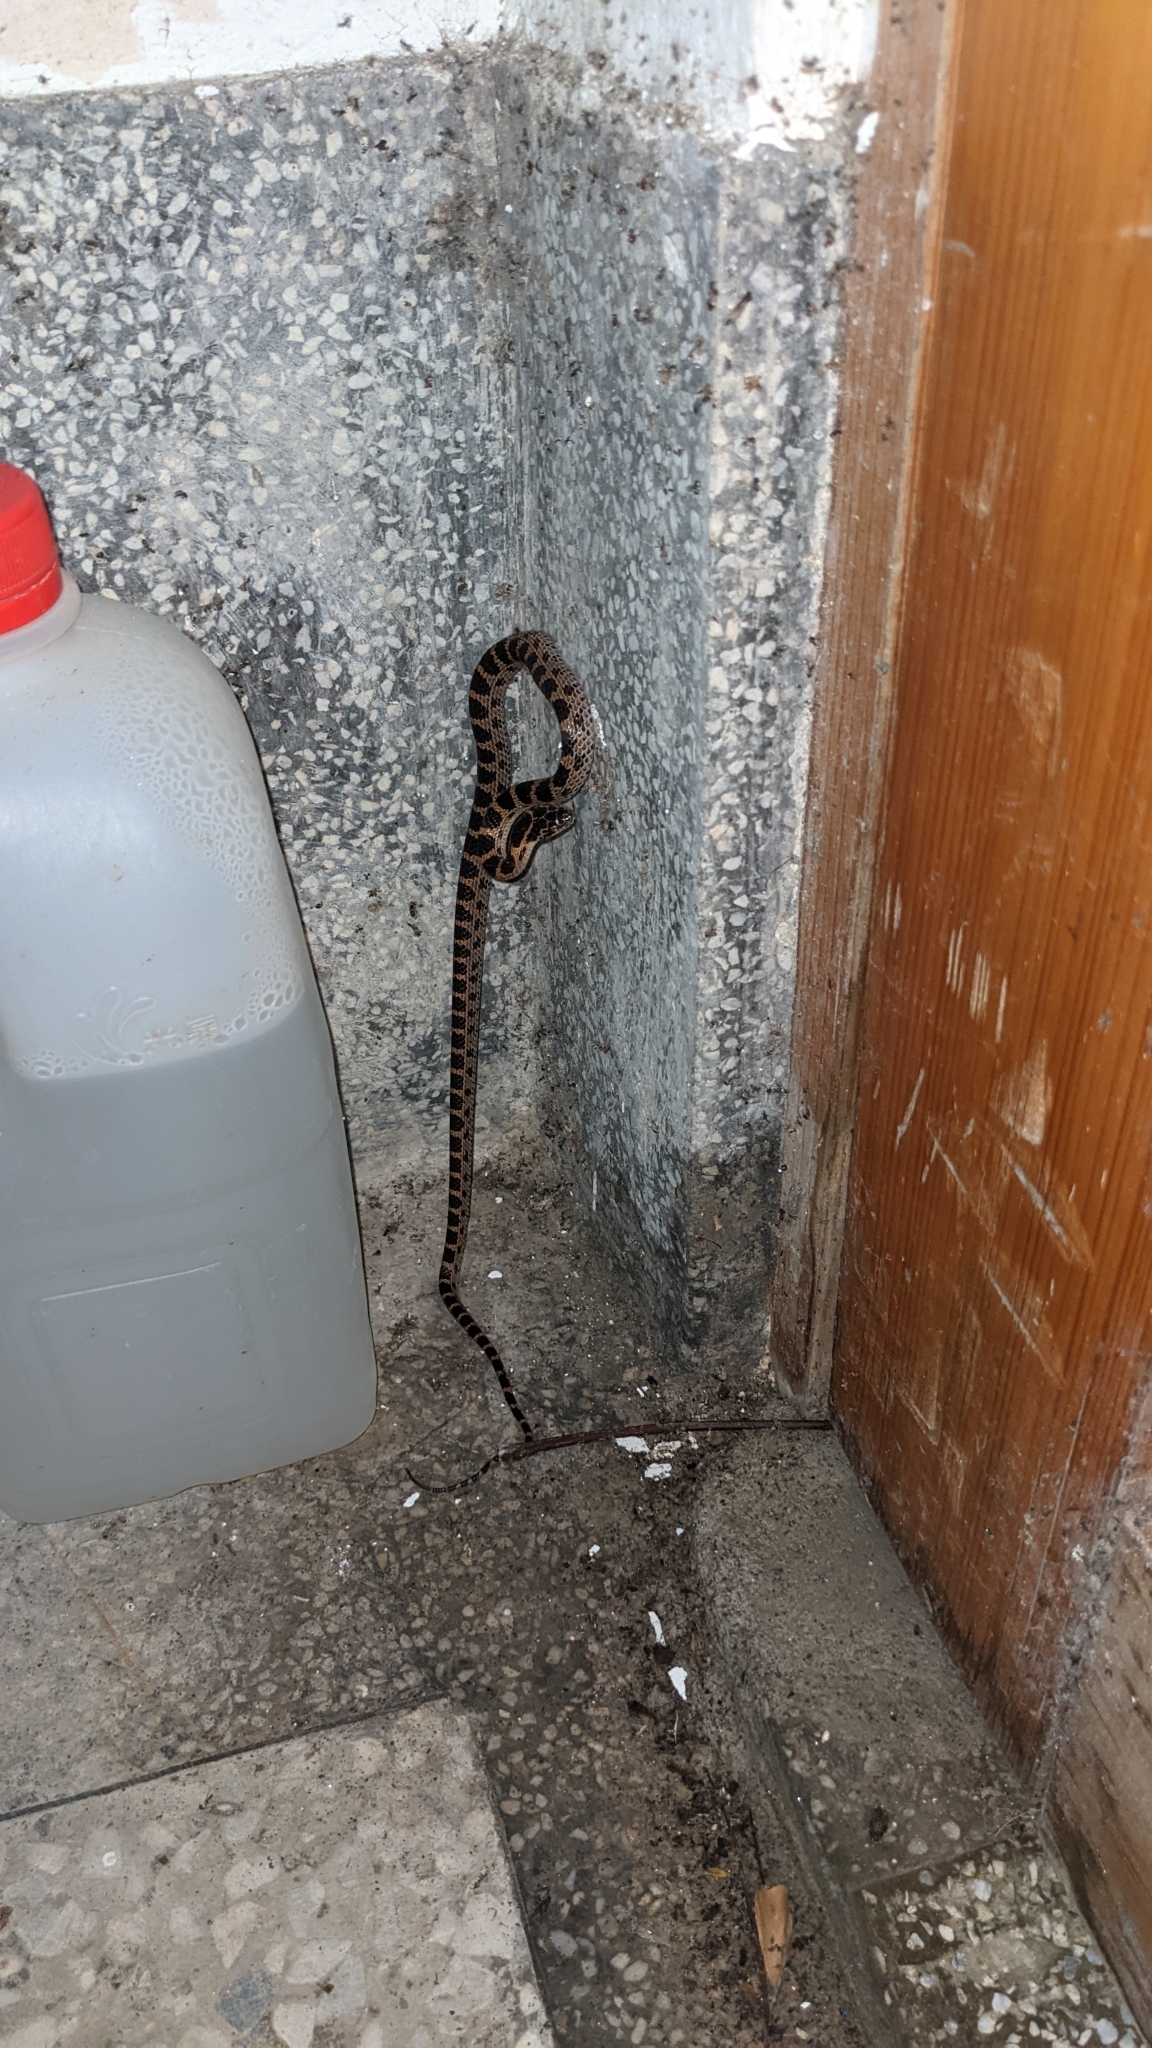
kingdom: Animalia
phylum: Chordata
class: Squamata
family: Colubridae
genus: Lycodon
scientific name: Lycodon rufozonatus
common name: Red-banded snake
